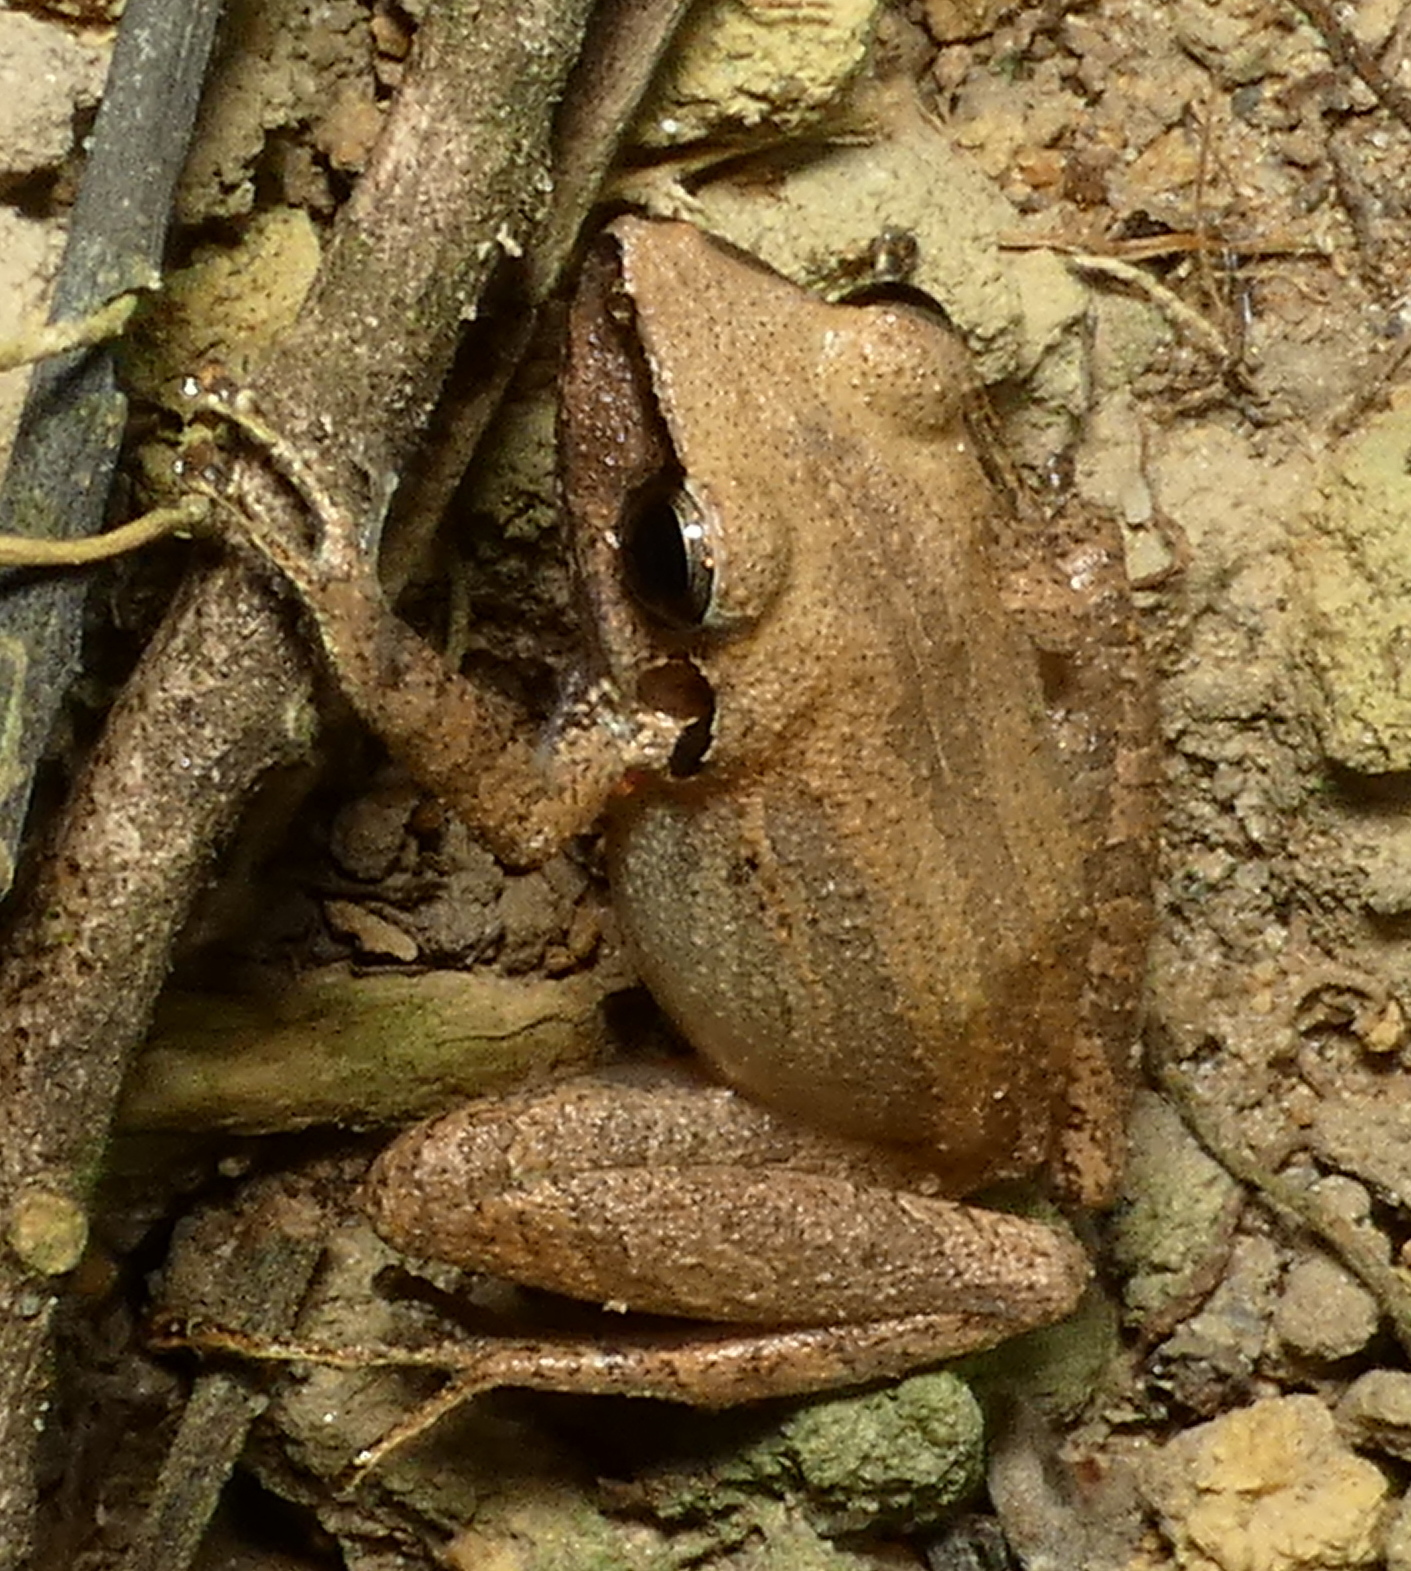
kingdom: Animalia
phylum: Chordata
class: Amphibia
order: Anura
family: Craugastoridae
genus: Pristimantis
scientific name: Pristimantis ramagii
